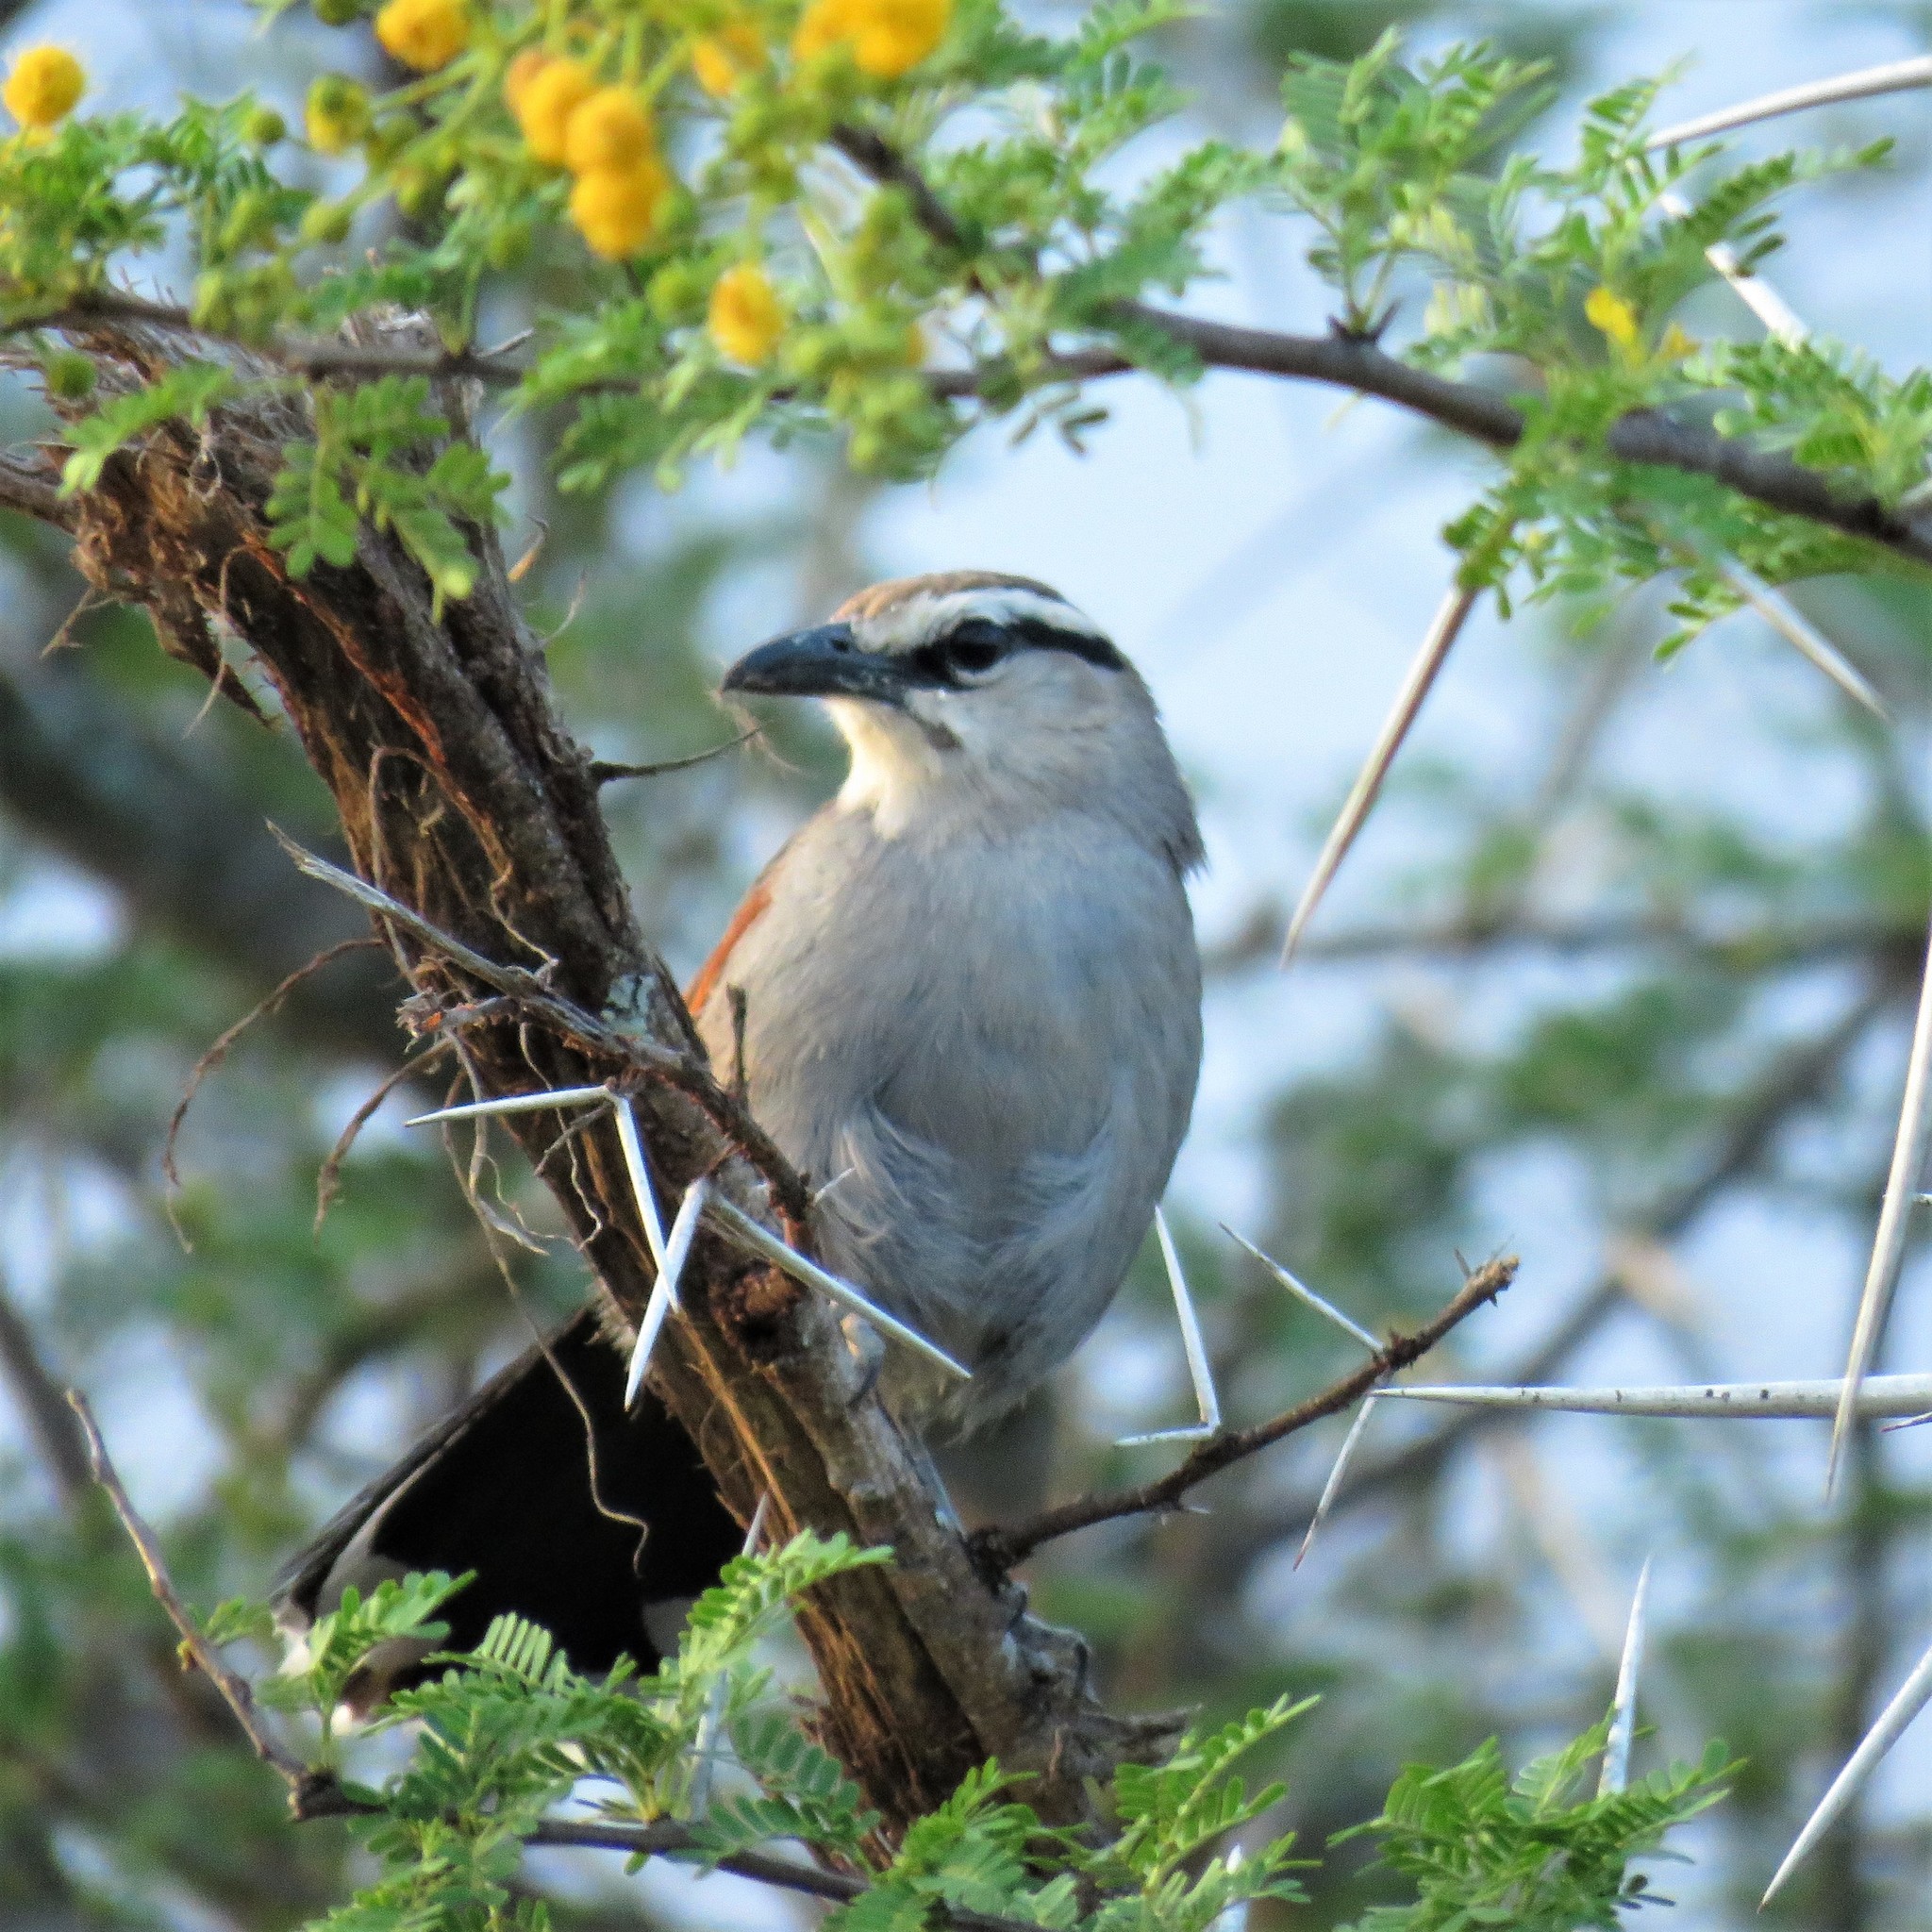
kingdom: Animalia
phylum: Chordata
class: Aves
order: Passeriformes
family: Malaconotidae
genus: Tchagra
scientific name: Tchagra tchagra
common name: Southern tchagra
